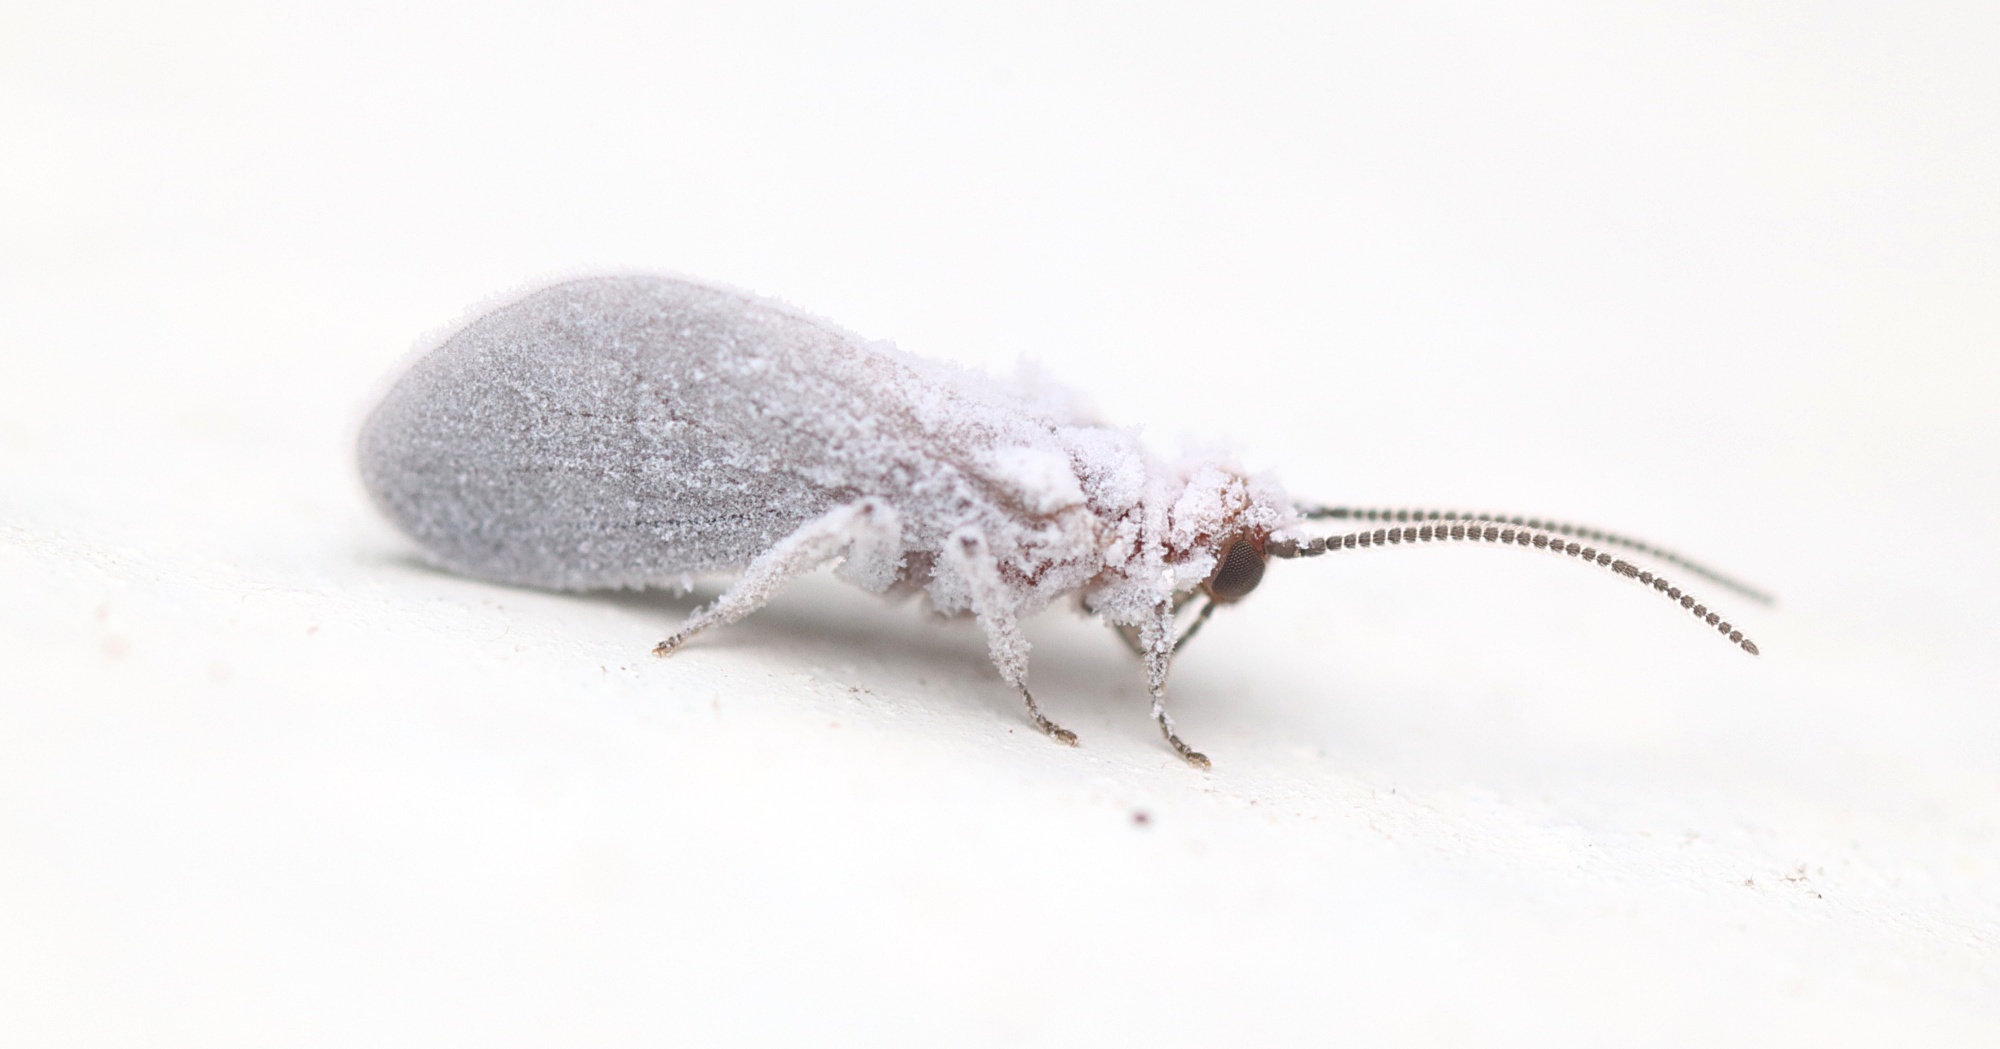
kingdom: Animalia
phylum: Arthropoda
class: Insecta
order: Neuroptera
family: Coniopterygidae
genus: Cryptoscenea
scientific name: Cryptoscenea australiensis
